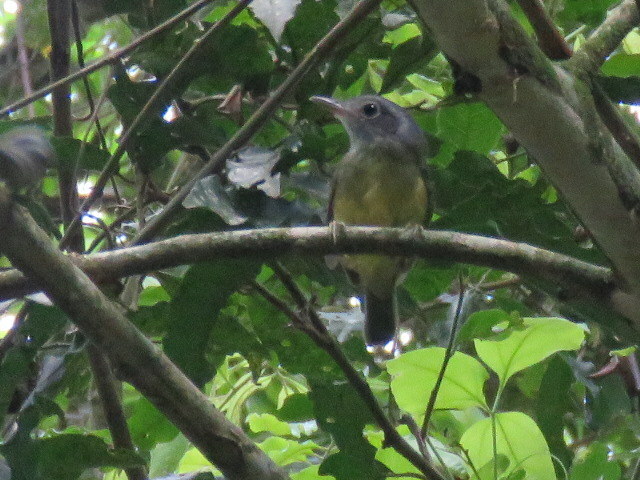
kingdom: Animalia
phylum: Chordata
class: Aves
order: Passeriformes
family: Thamnophilidae
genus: Dysithamnus
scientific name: Dysithamnus mentalis
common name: Plain antvireo
